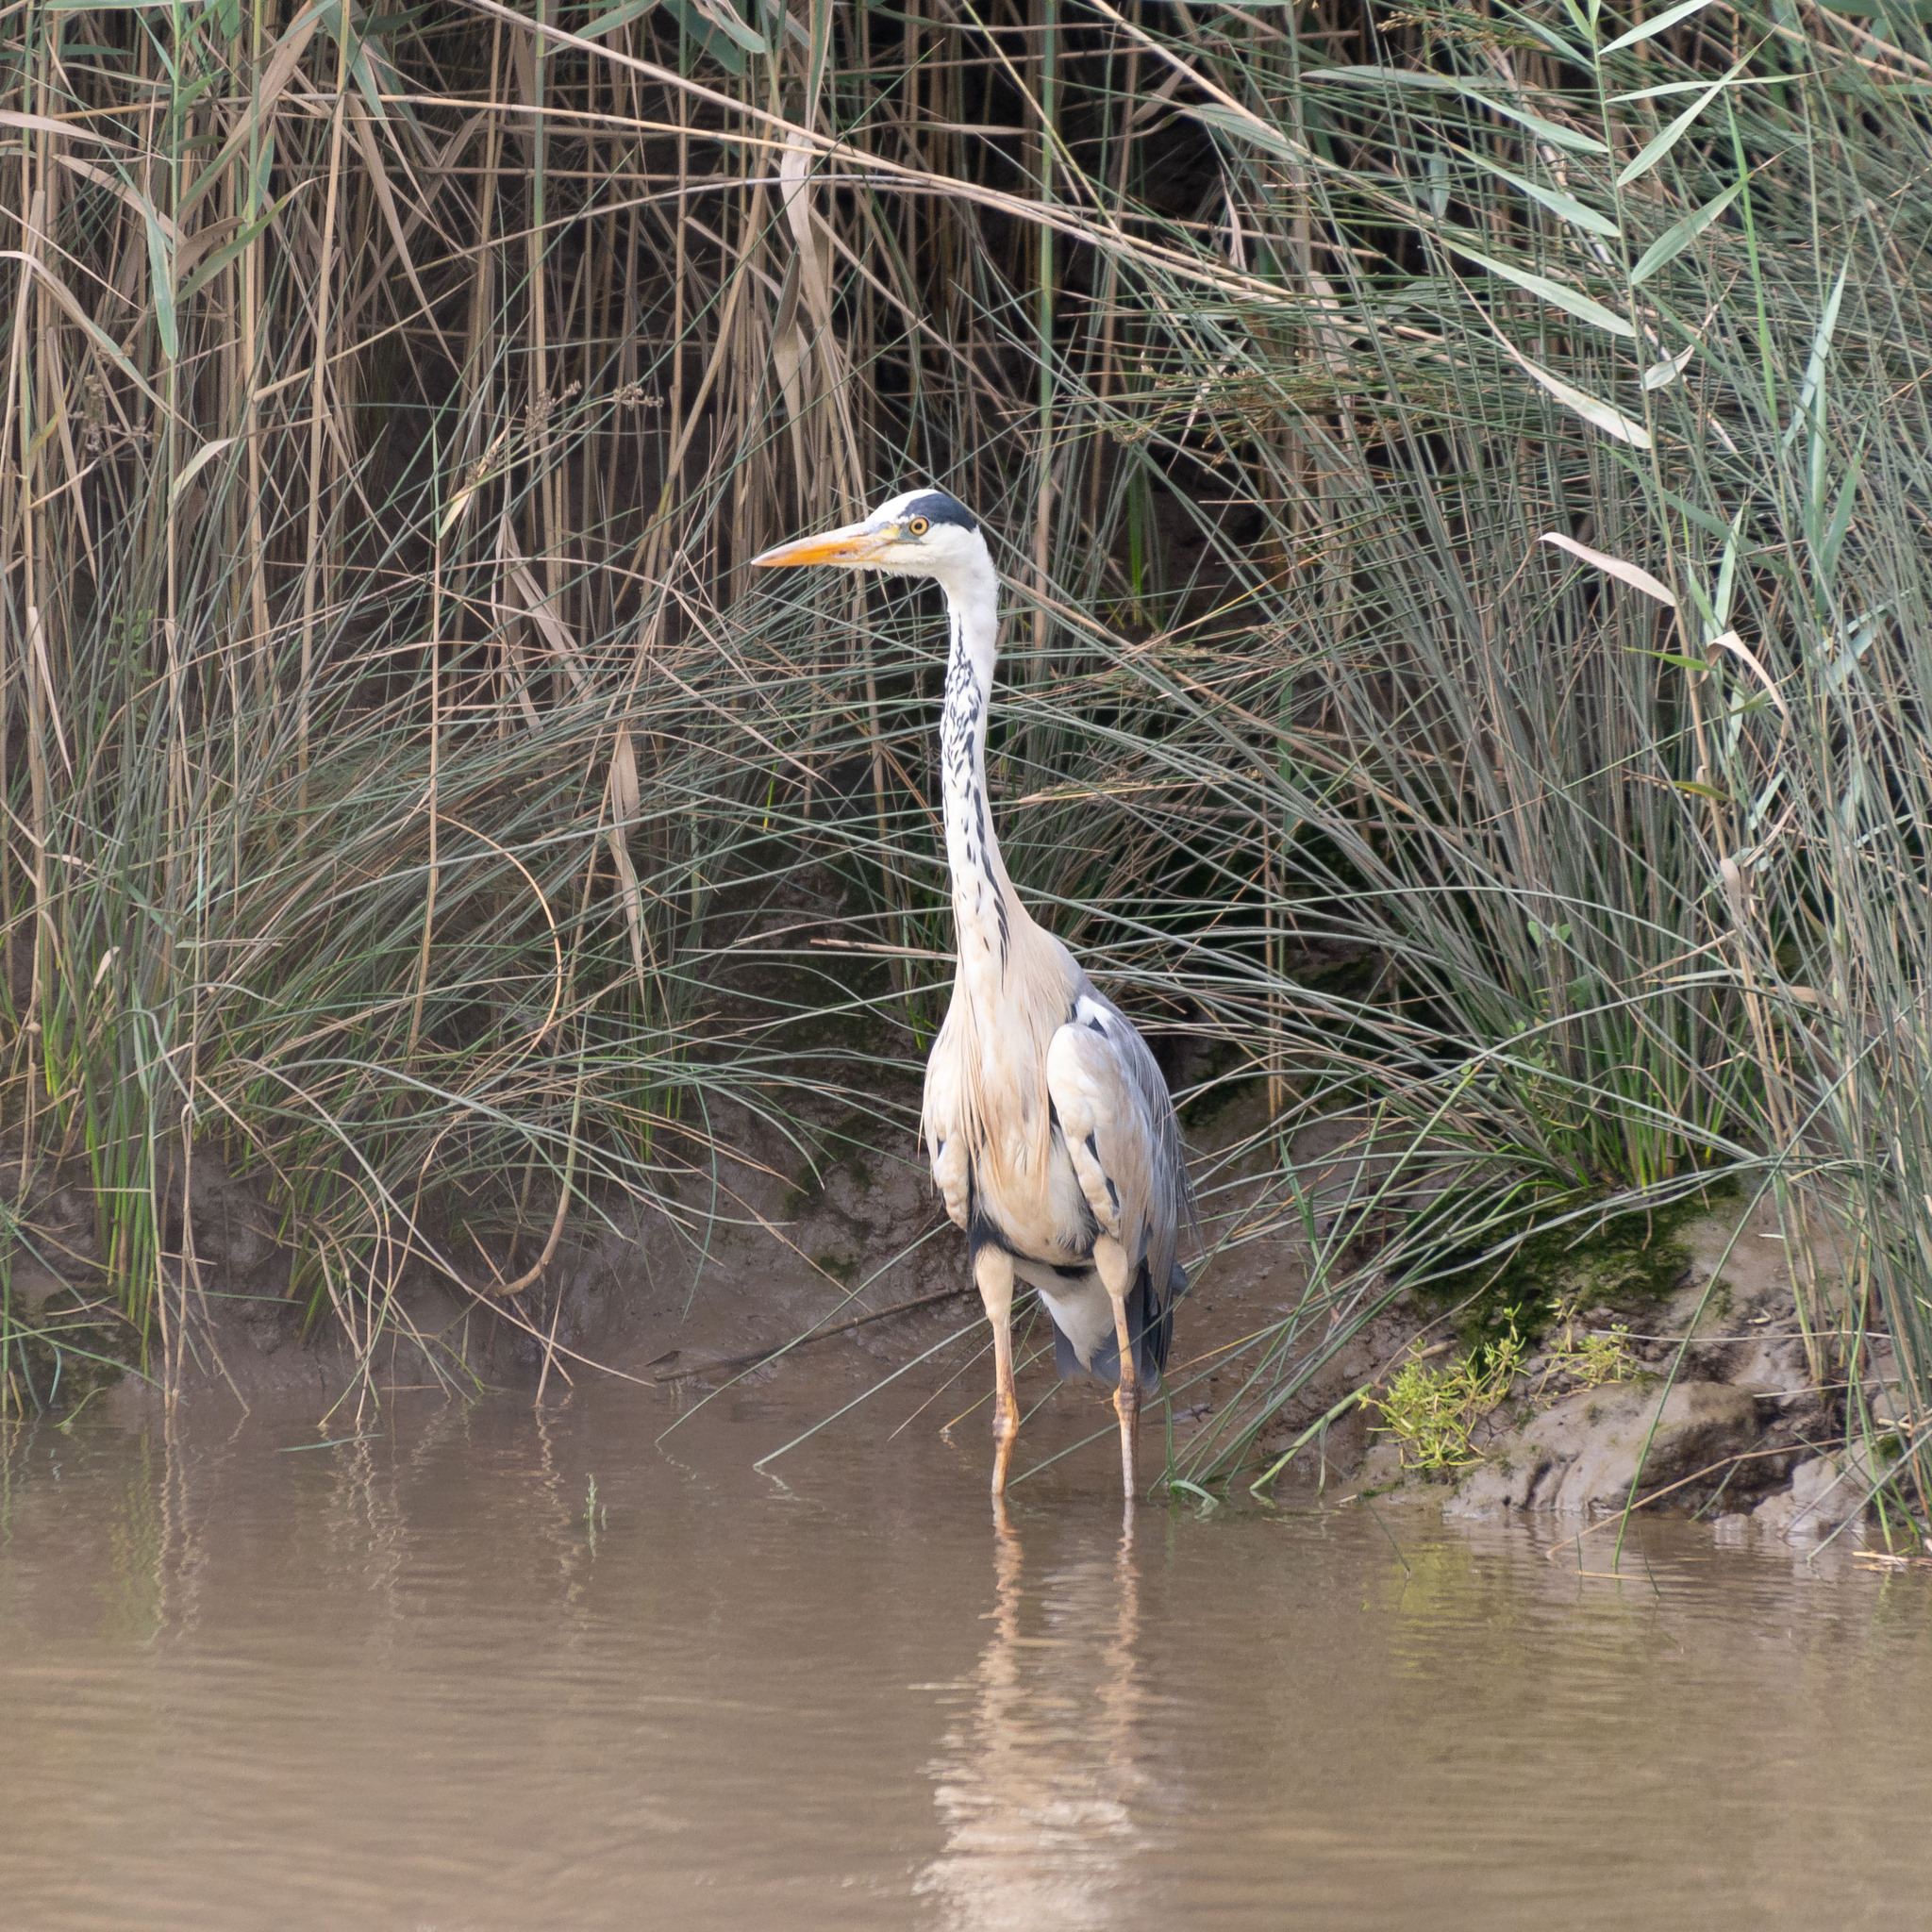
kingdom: Animalia
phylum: Chordata
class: Aves
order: Pelecaniformes
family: Ardeidae
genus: Ardea
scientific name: Ardea cinerea
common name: Grey heron
